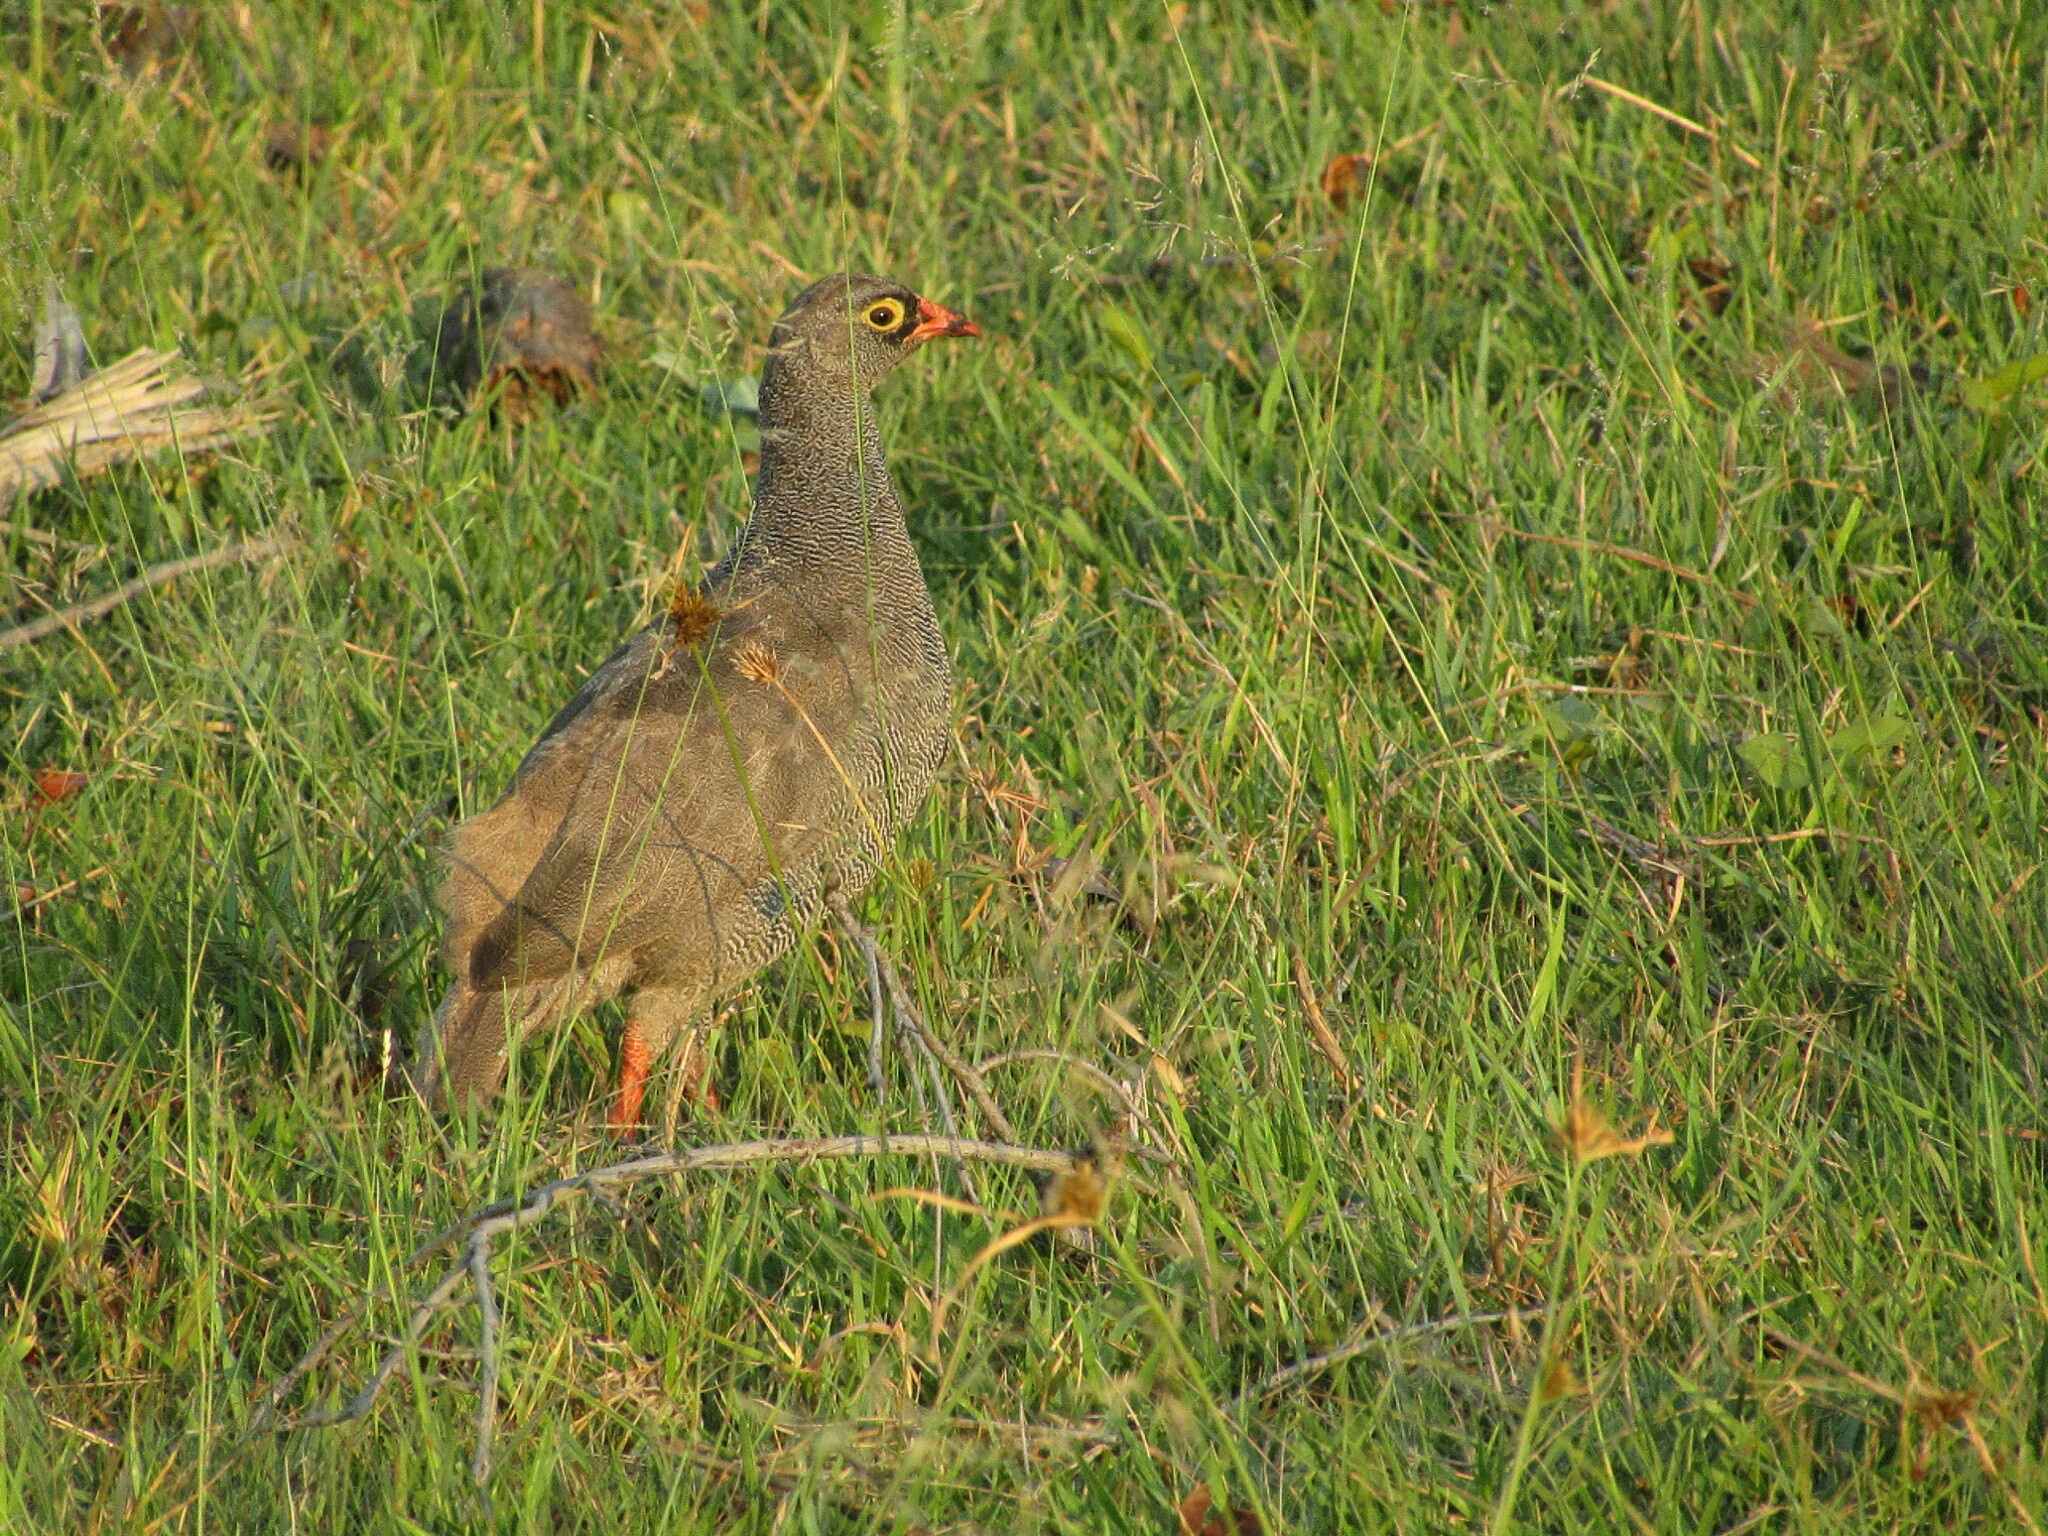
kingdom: Animalia
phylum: Chordata
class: Aves
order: Galliformes
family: Phasianidae
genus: Pternistis
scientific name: Pternistis adspersus
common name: Red-billed spurfowl
